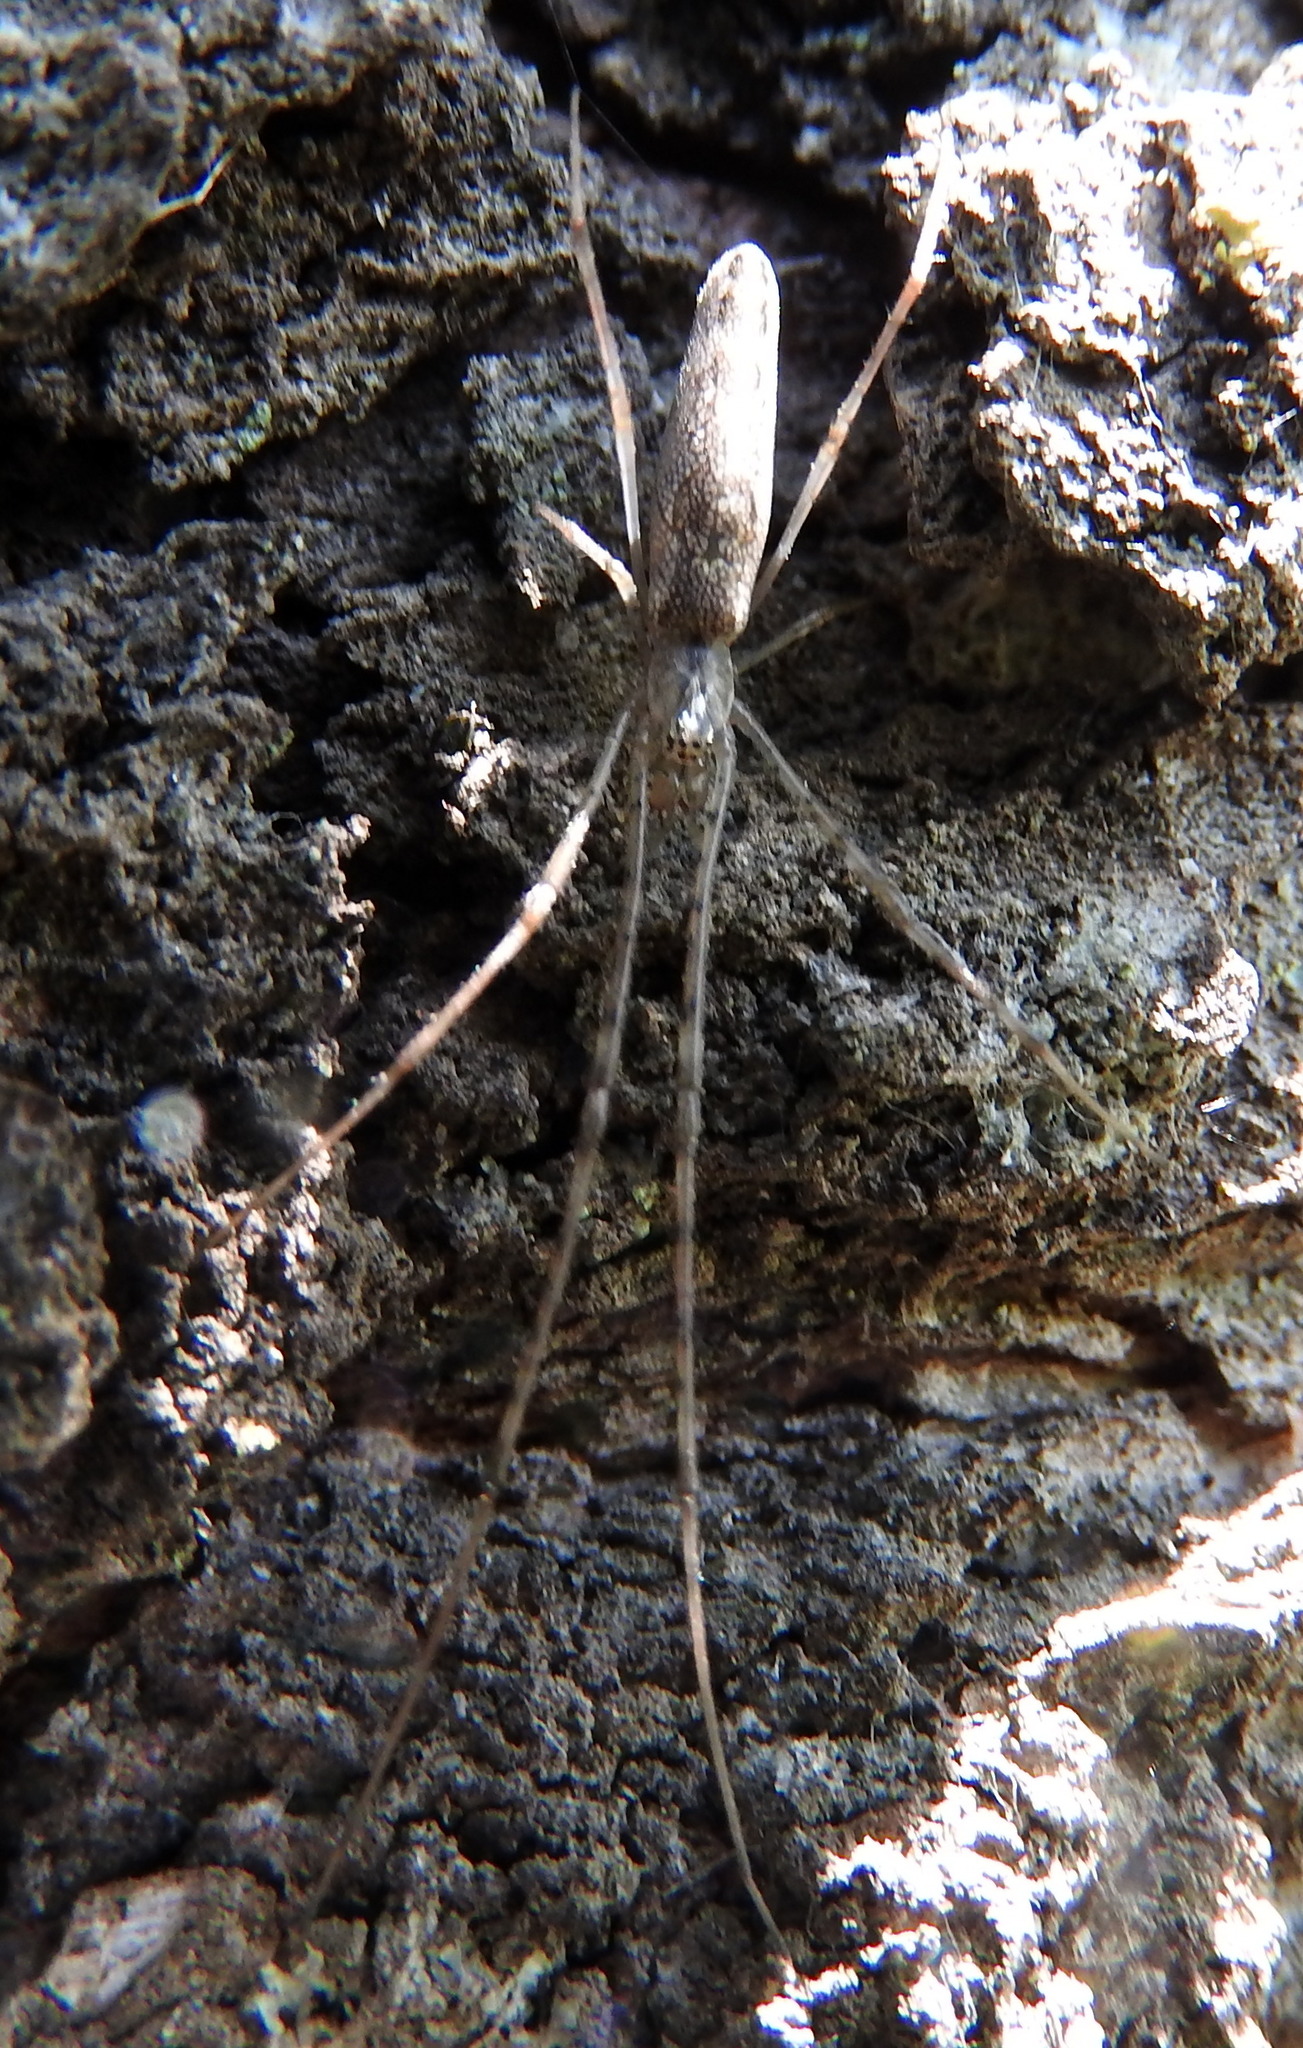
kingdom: Animalia
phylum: Arthropoda
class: Arachnida
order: Araneae
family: Tetragnathidae
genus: Tetragnatha
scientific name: Tetragnatha
